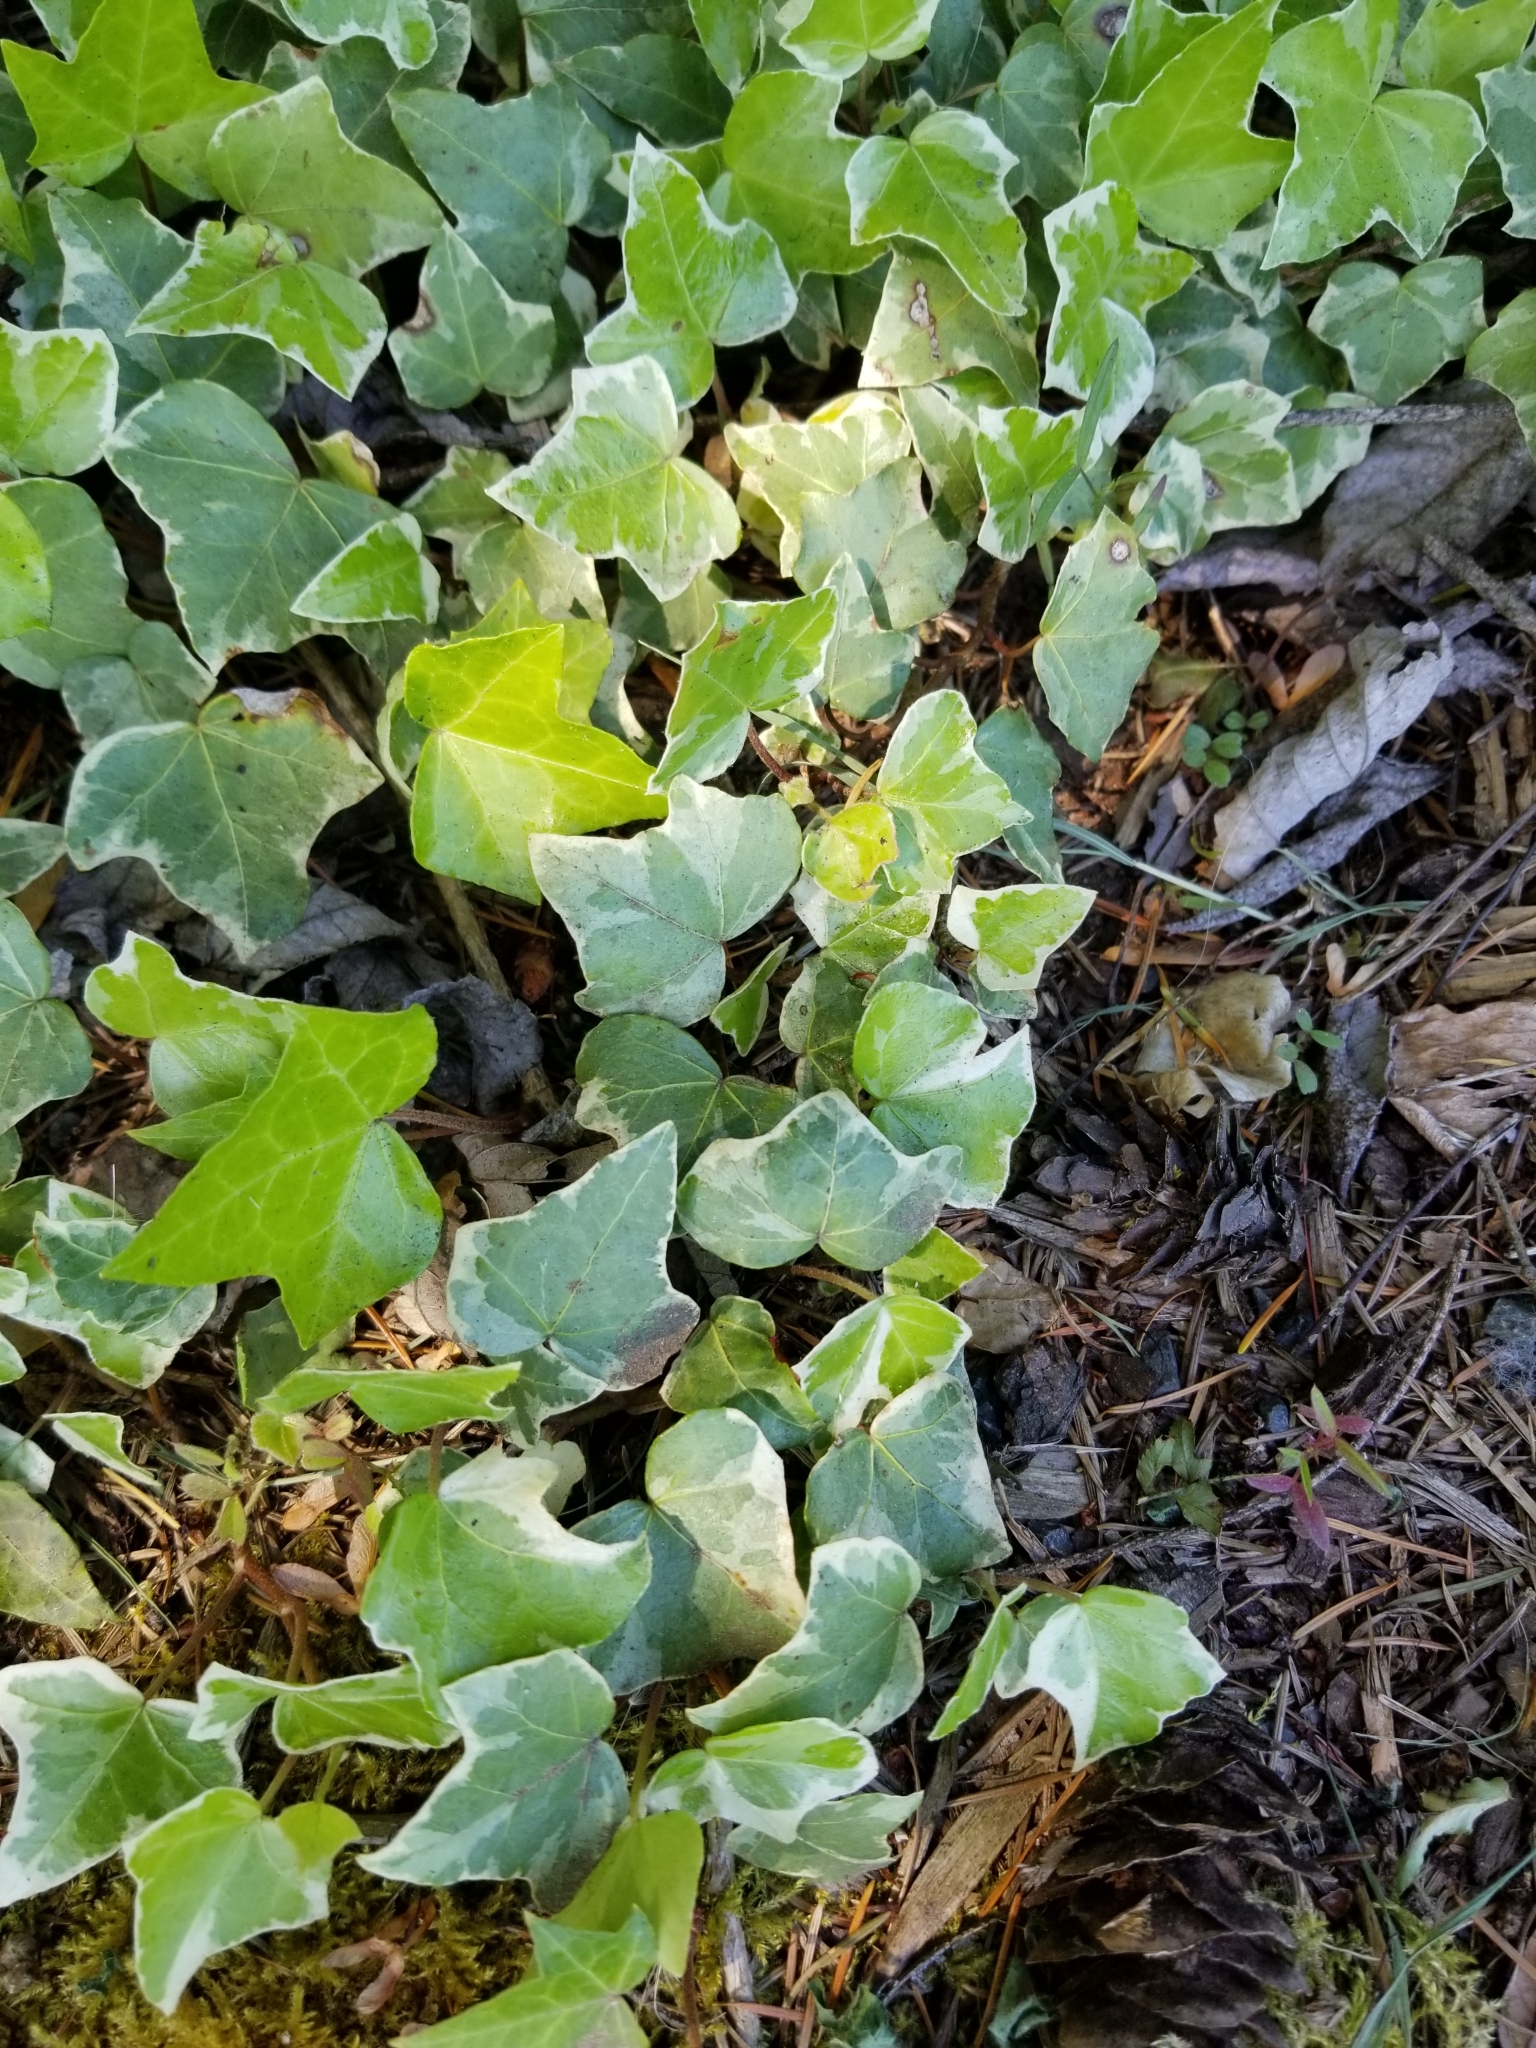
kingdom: Plantae
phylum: Tracheophyta
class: Magnoliopsida
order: Apiales
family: Araliaceae
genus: Hedera
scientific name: Hedera helix
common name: Ivy
